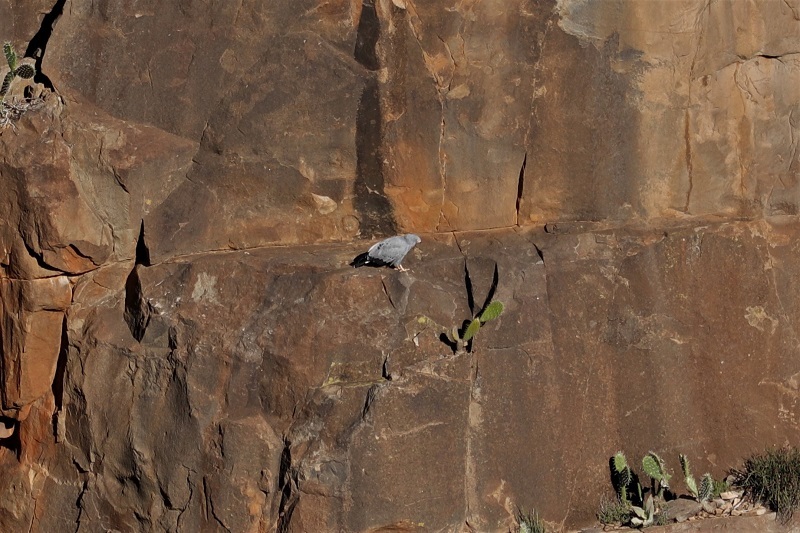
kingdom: Animalia
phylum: Chordata
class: Aves
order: Accipitriformes
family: Accipitridae
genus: Polyboroides
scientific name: Polyboroides typus
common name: African harrier-hawk
